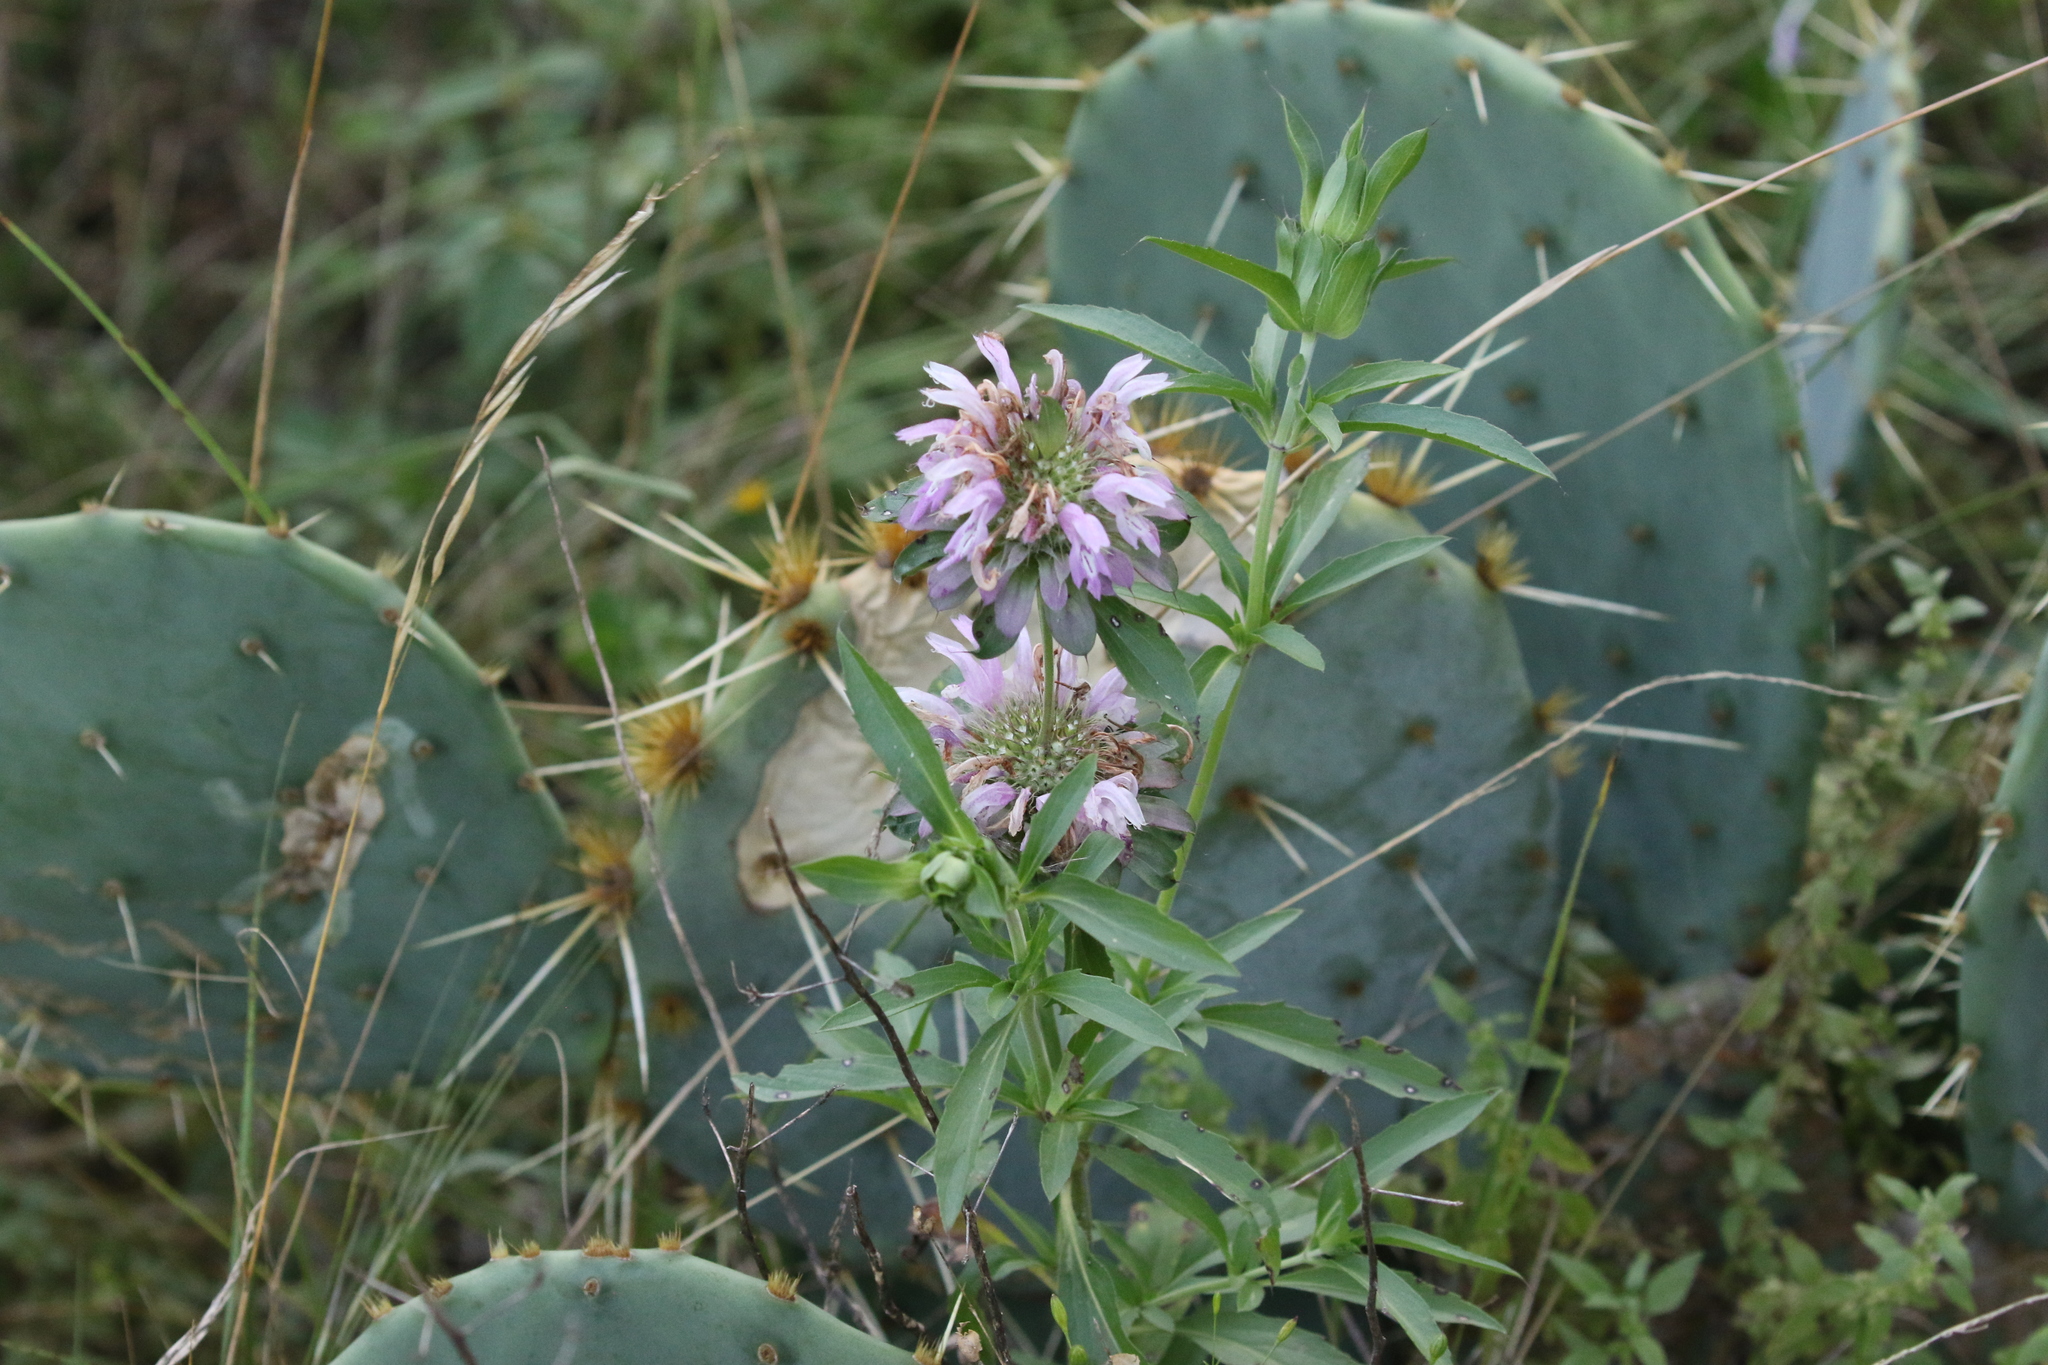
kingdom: Plantae
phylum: Tracheophyta
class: Magnoliopsida
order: Lamiales
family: Lamiaceae
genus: Monarda
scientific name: Monarda citriodora
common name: Lemon beebalm
